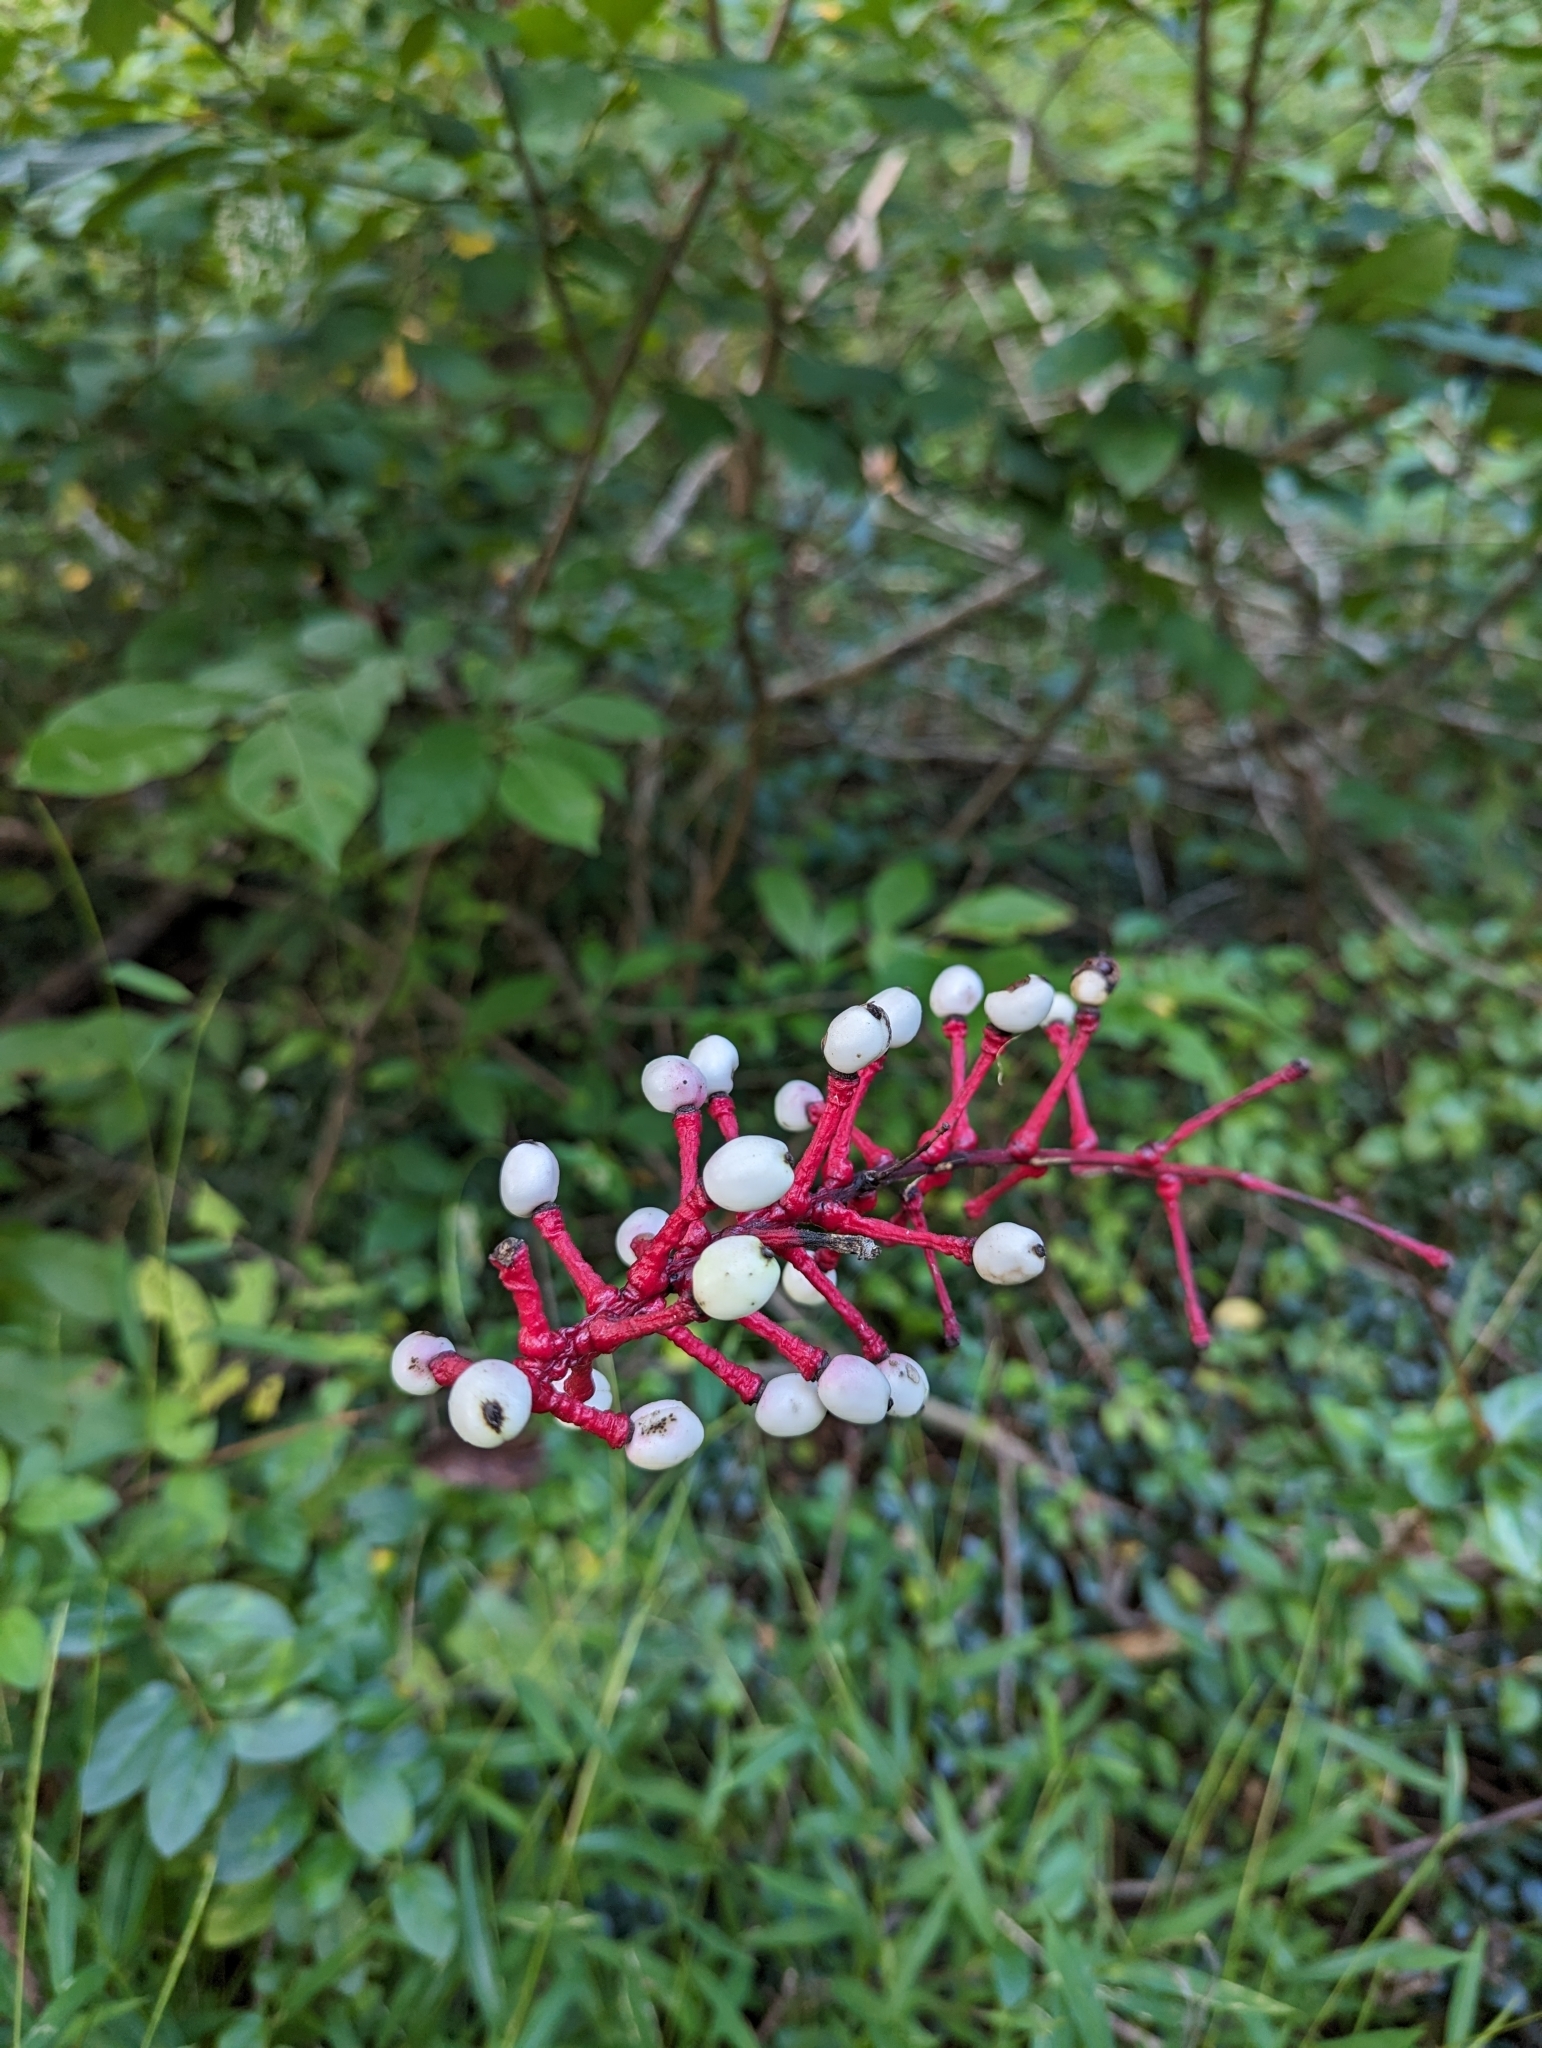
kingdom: Plantae
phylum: Tracheophyta
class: Magnoliopsida
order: Ranunculales
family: Ranunculaceae
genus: Actaea
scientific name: Actaea pachypoda
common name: Doll's-eyes
